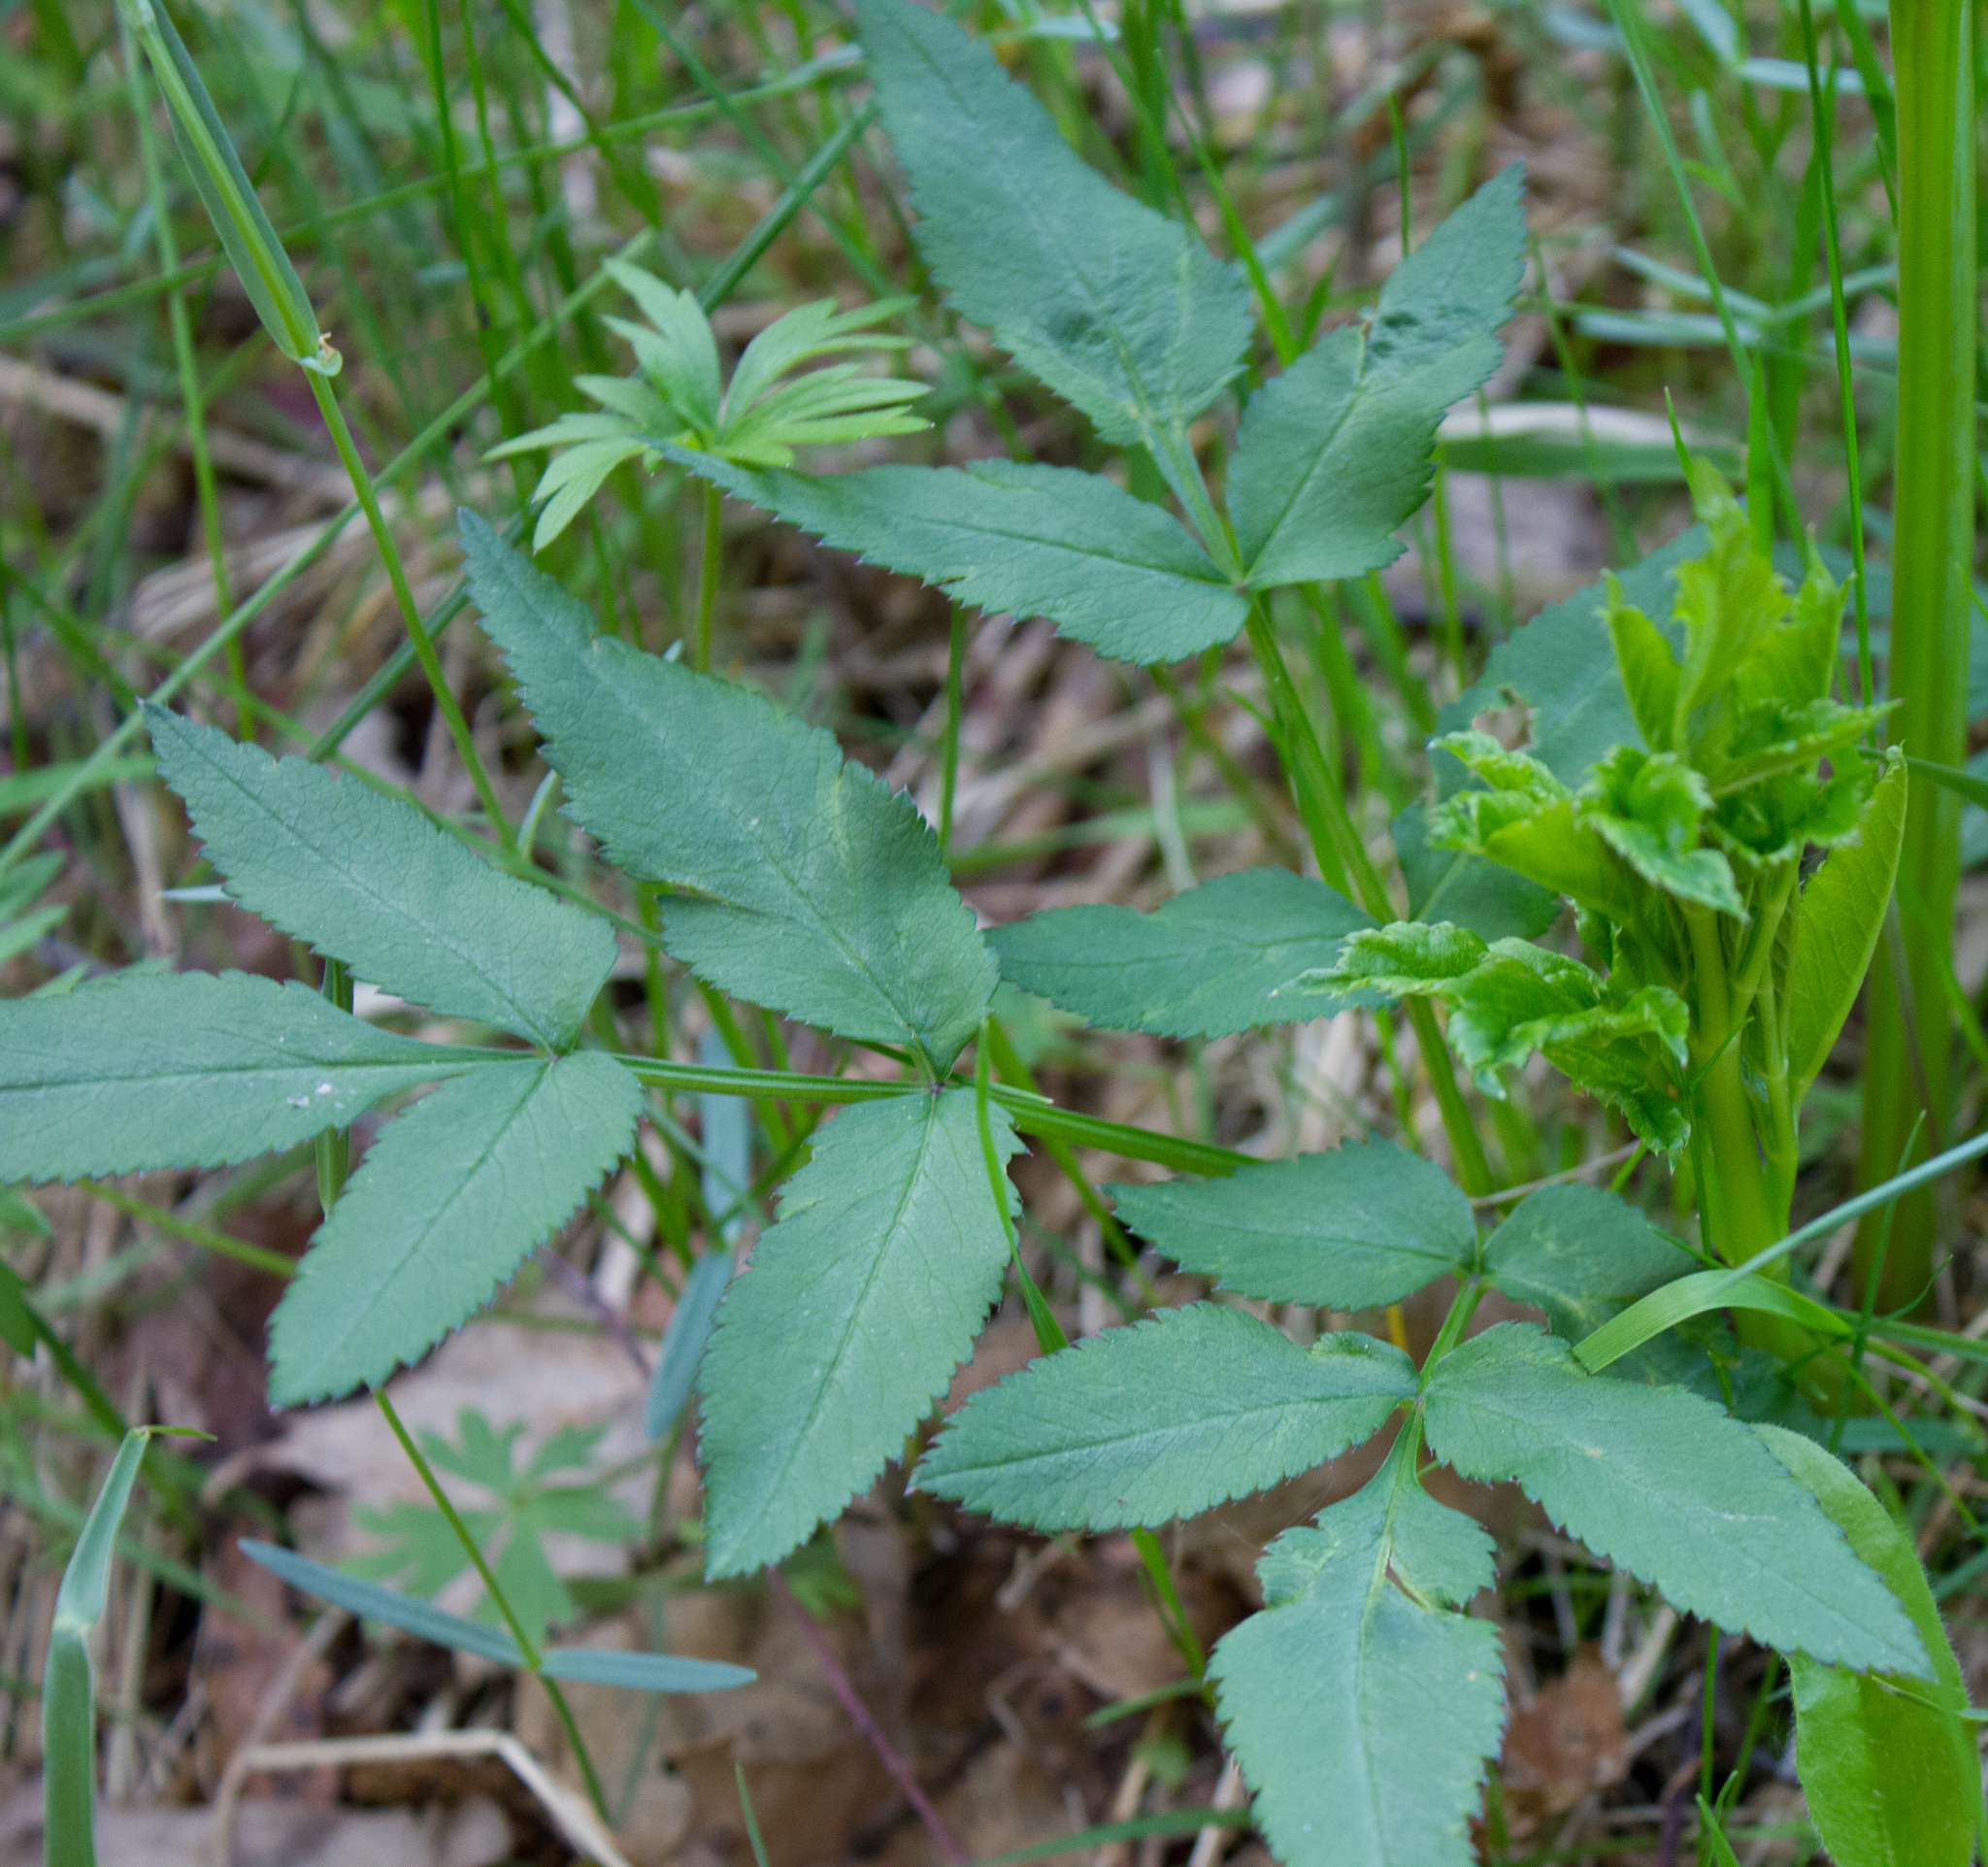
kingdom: Plantae
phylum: Tracheophyta
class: Magnoliopsida
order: Apiales
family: Apiaceae
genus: Angelica
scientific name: Angelica sylvestris
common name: Wild angelica
